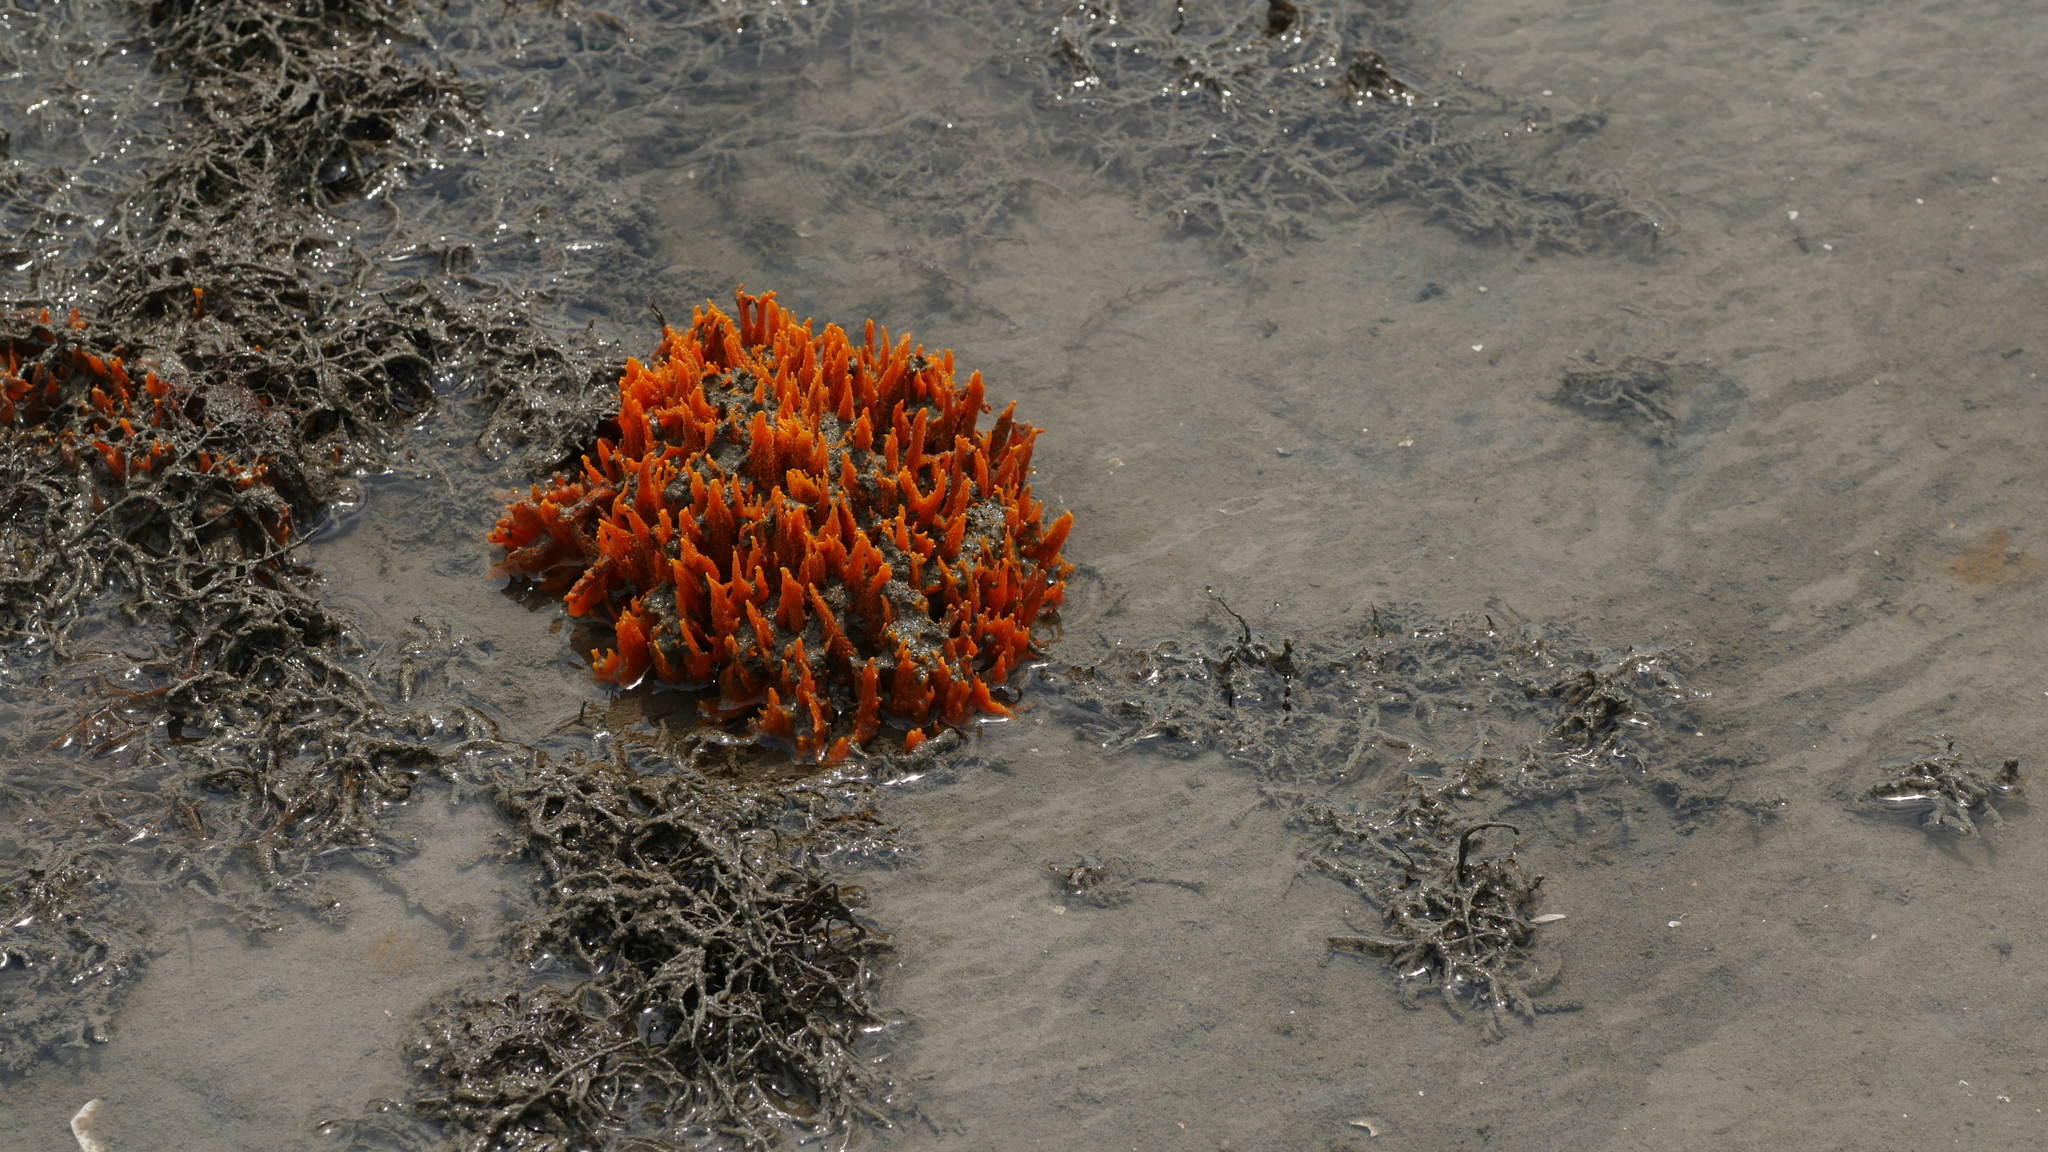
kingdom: Animalia
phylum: Porifera
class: Demospongiae
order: Suberitida
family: Halichondriidae
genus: Hymeniacidon
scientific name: Hymeniacidon heliophila
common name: Diurnal horny sponge
